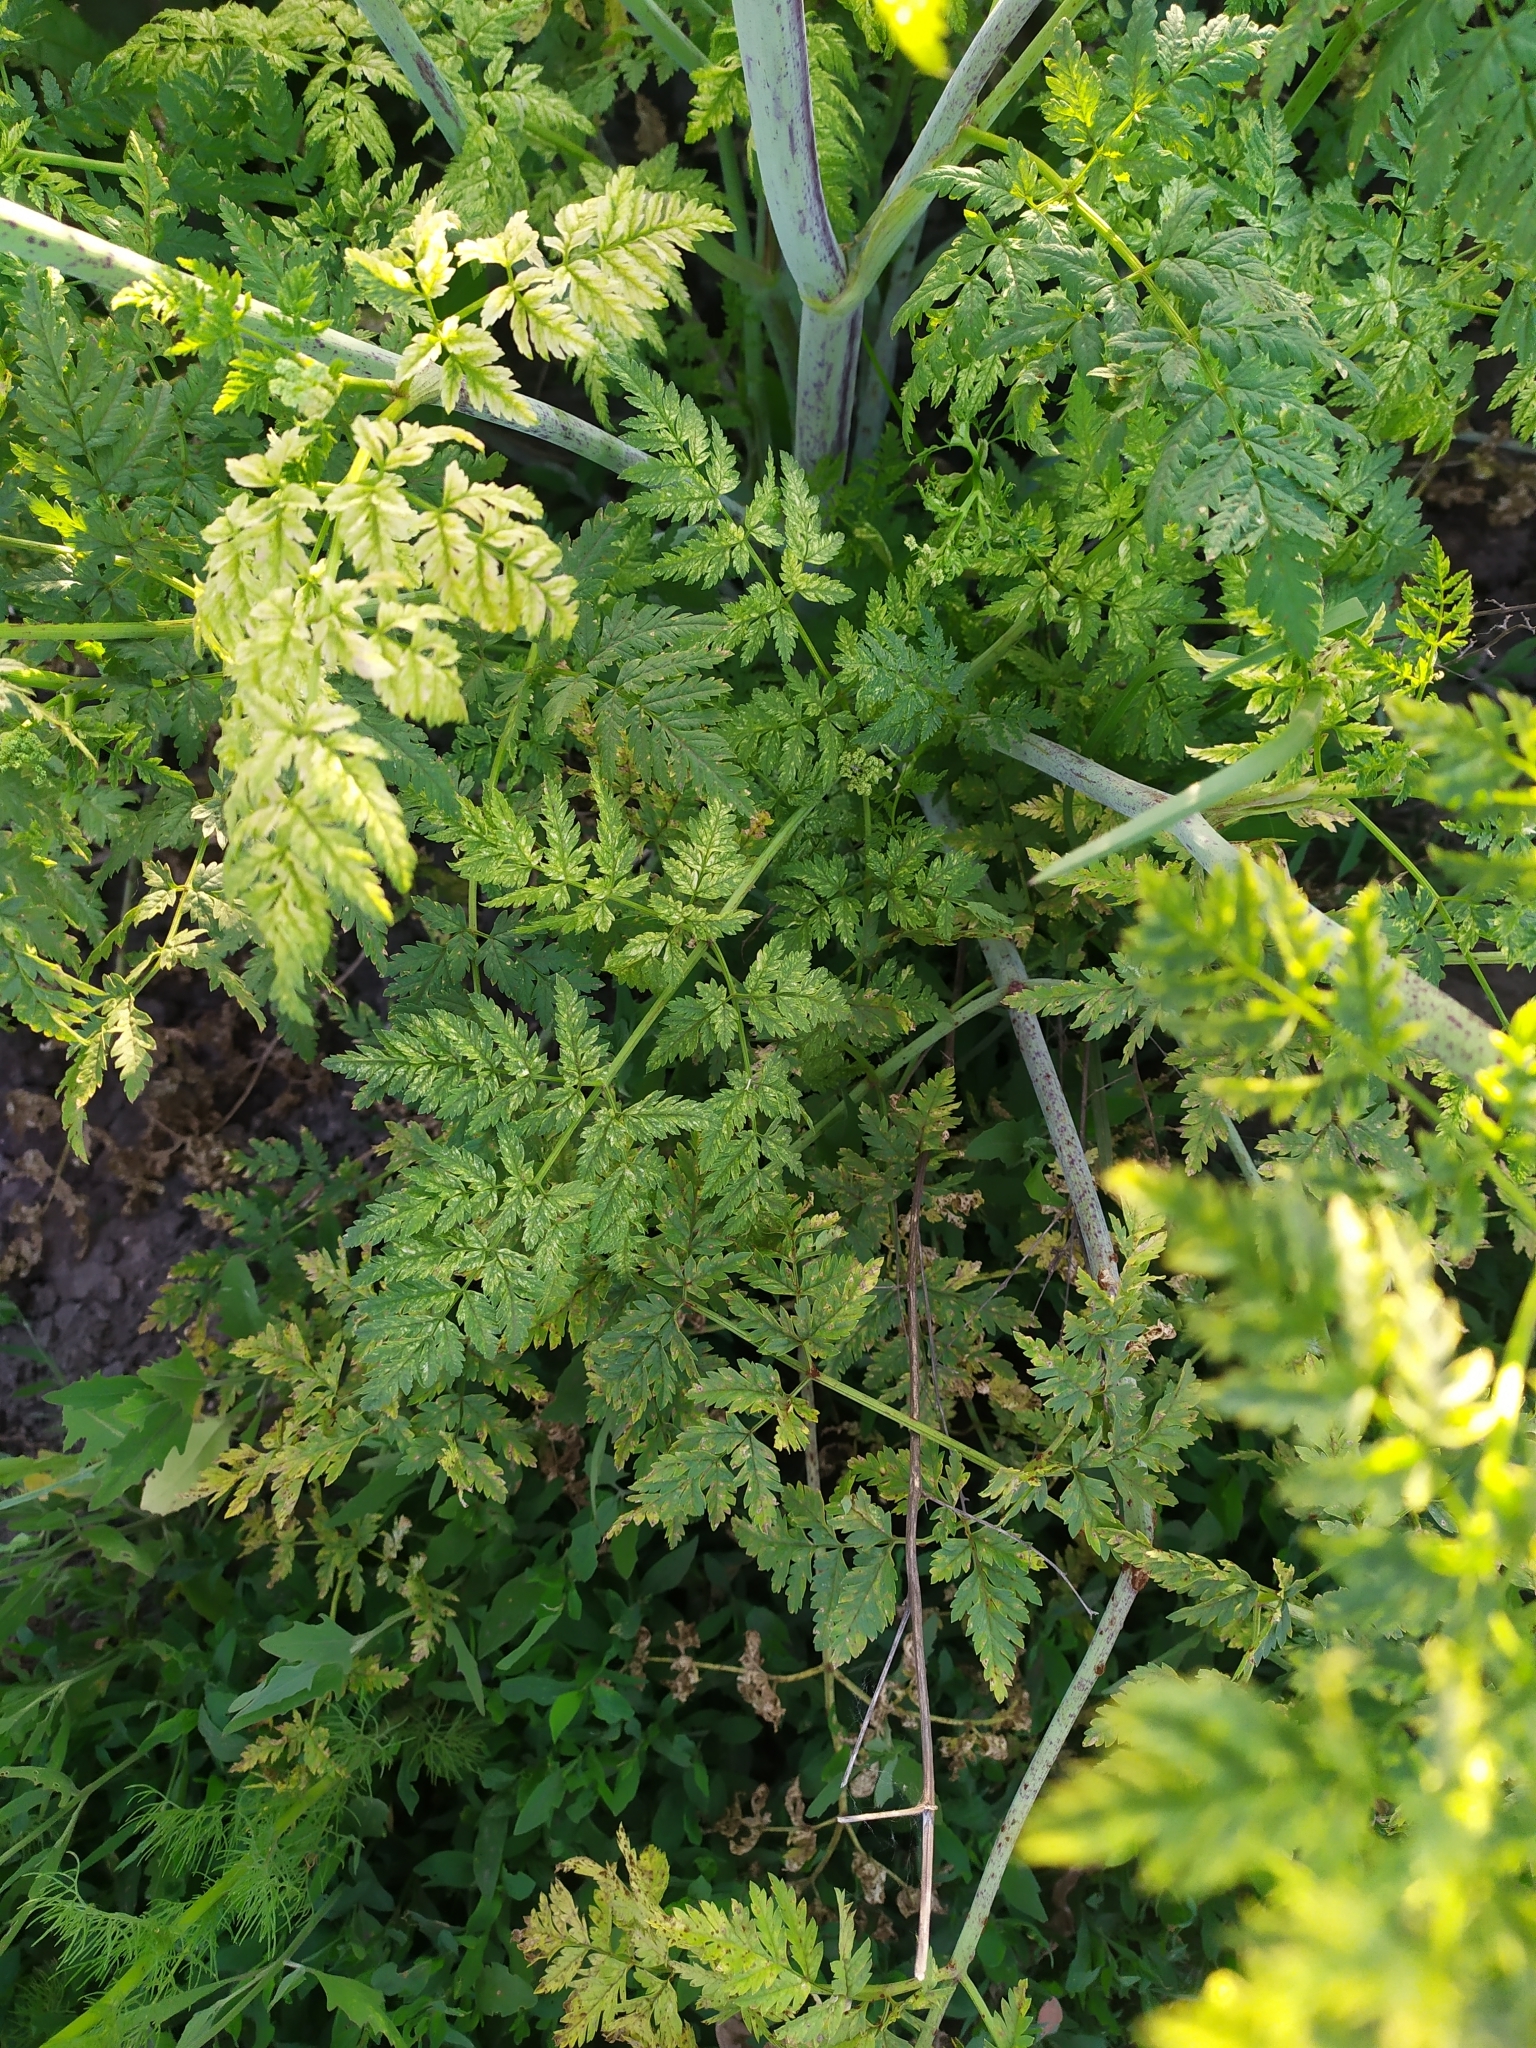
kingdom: Plantae
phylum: Tracheophyta
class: Magnoliopsida
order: Apiales
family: Apiaceae
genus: Conium
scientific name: Conium maculatum
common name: Hemlock
